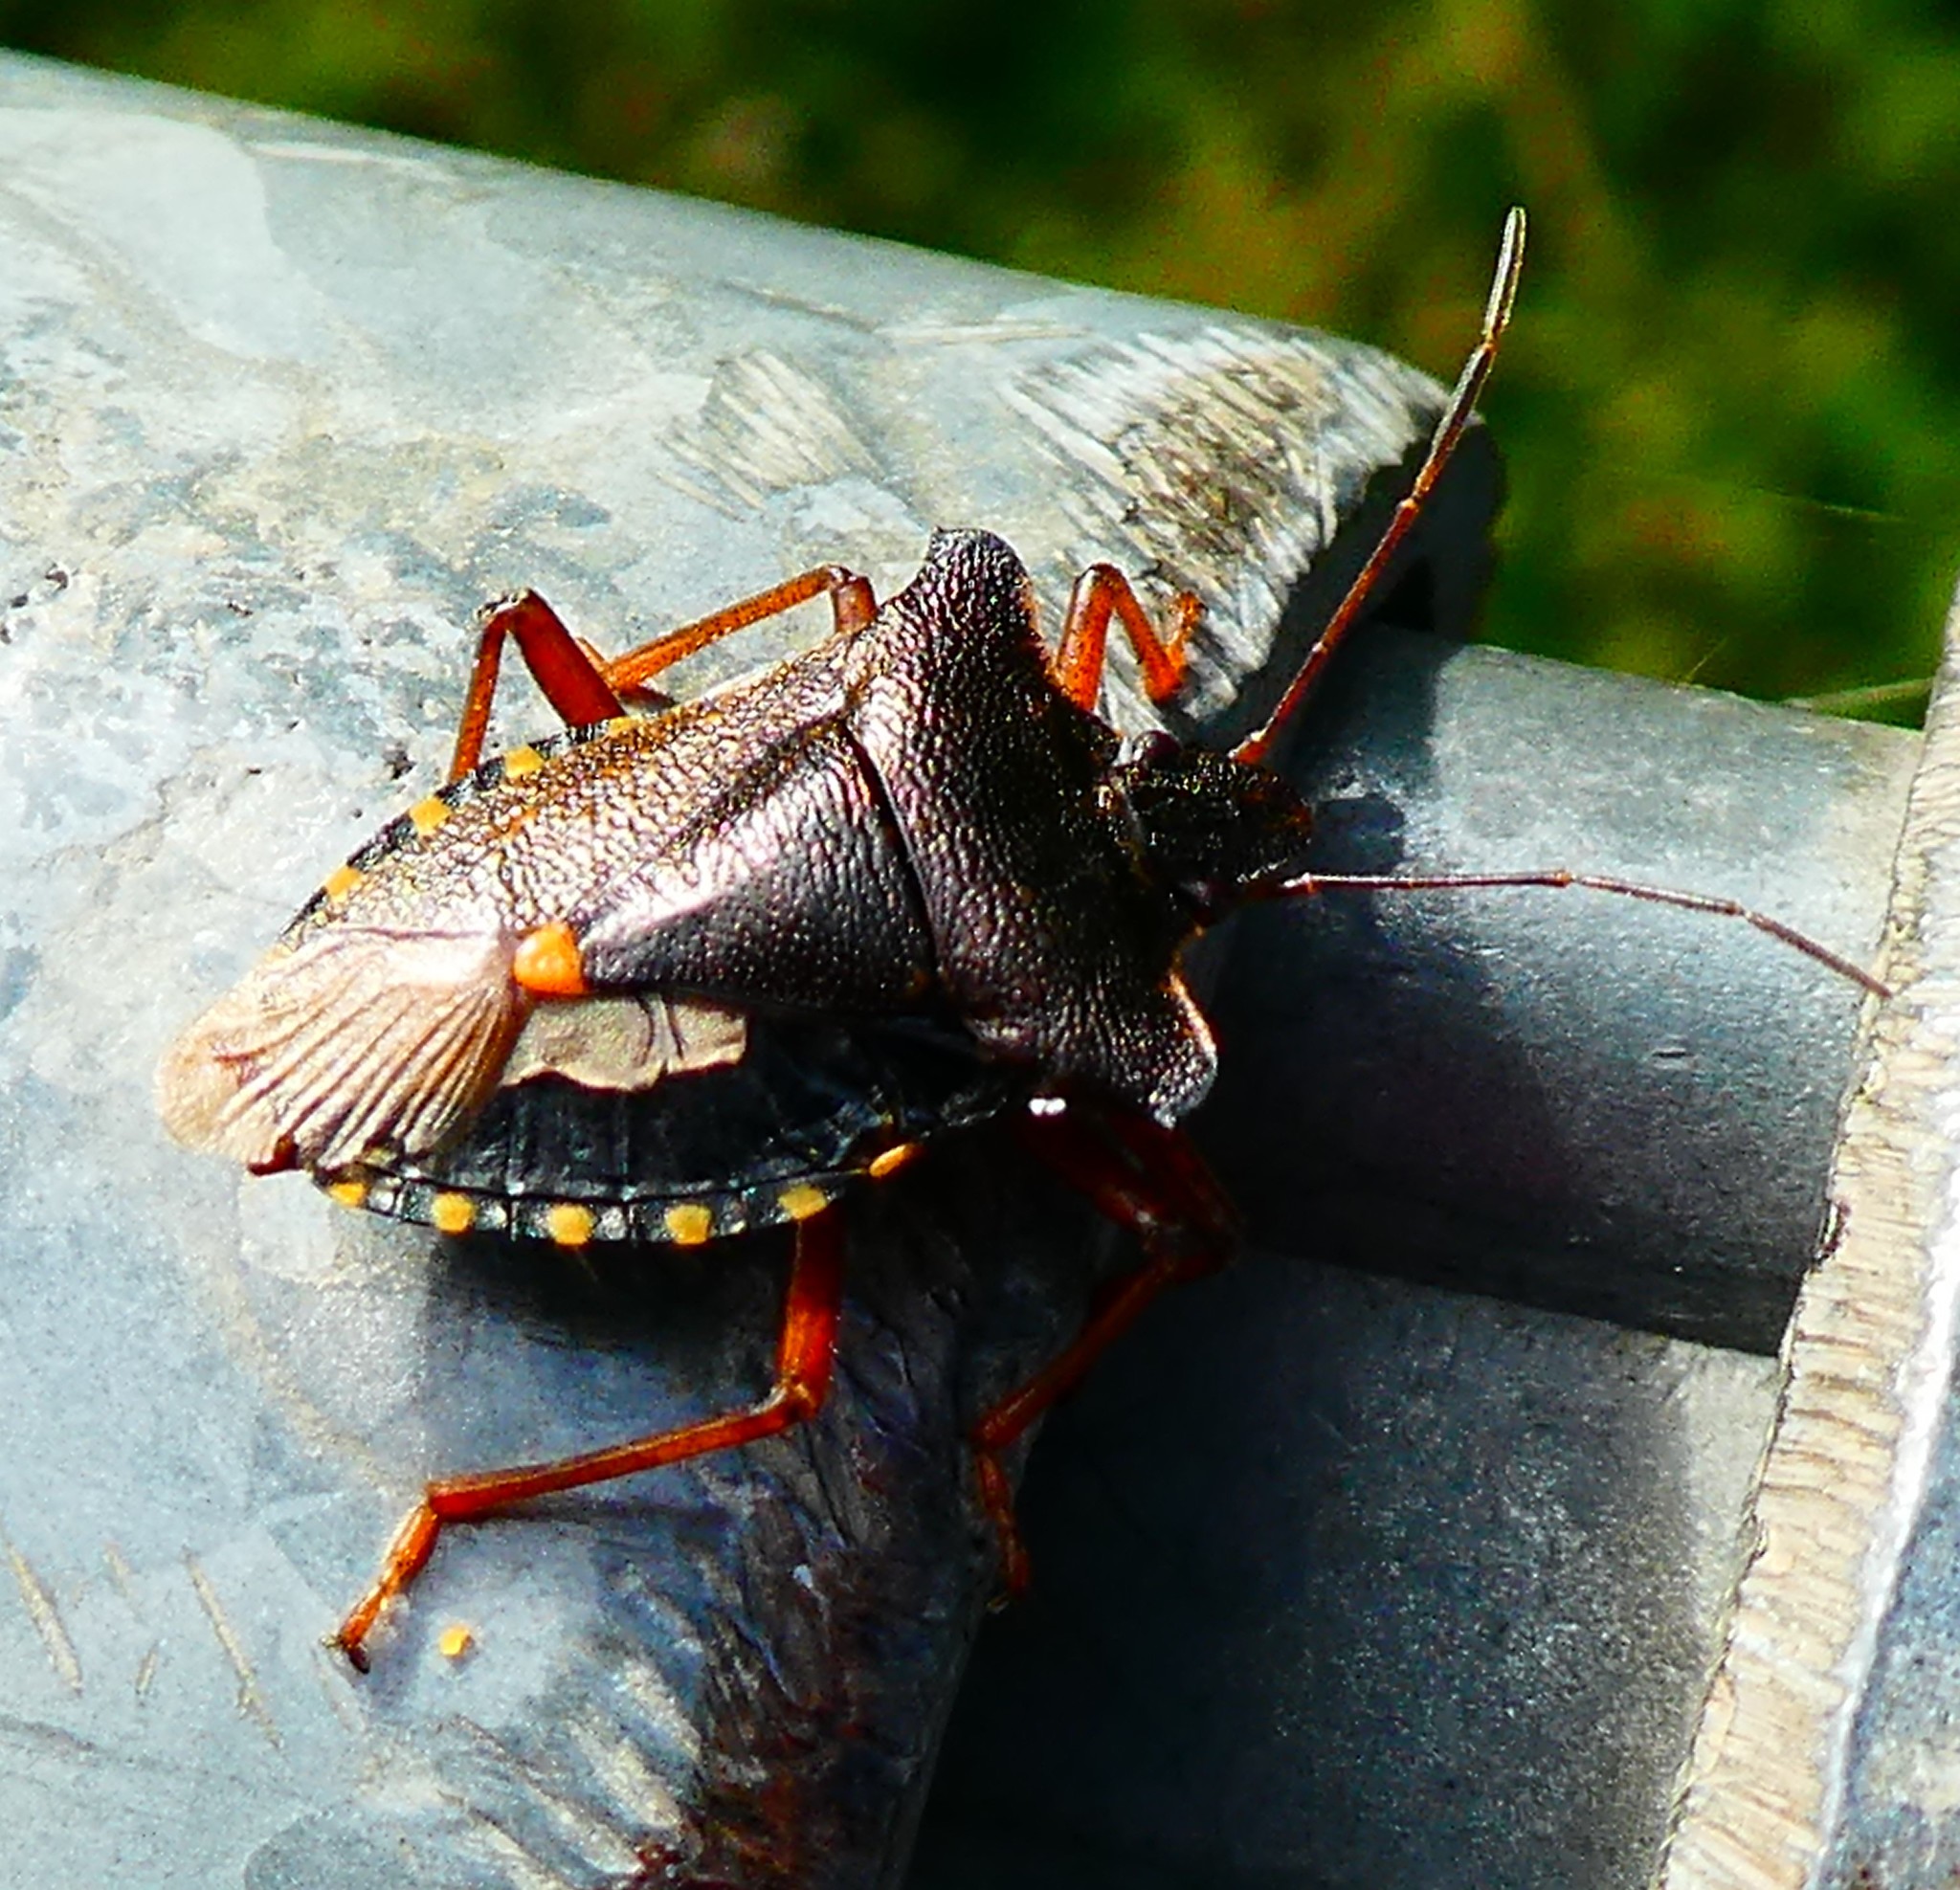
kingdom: Animalia
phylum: Arthropoda
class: Insecta
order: Hemiptera
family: Pentatomidae
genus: Pentatoma
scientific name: Pentatoma rufipes
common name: Forest bug
